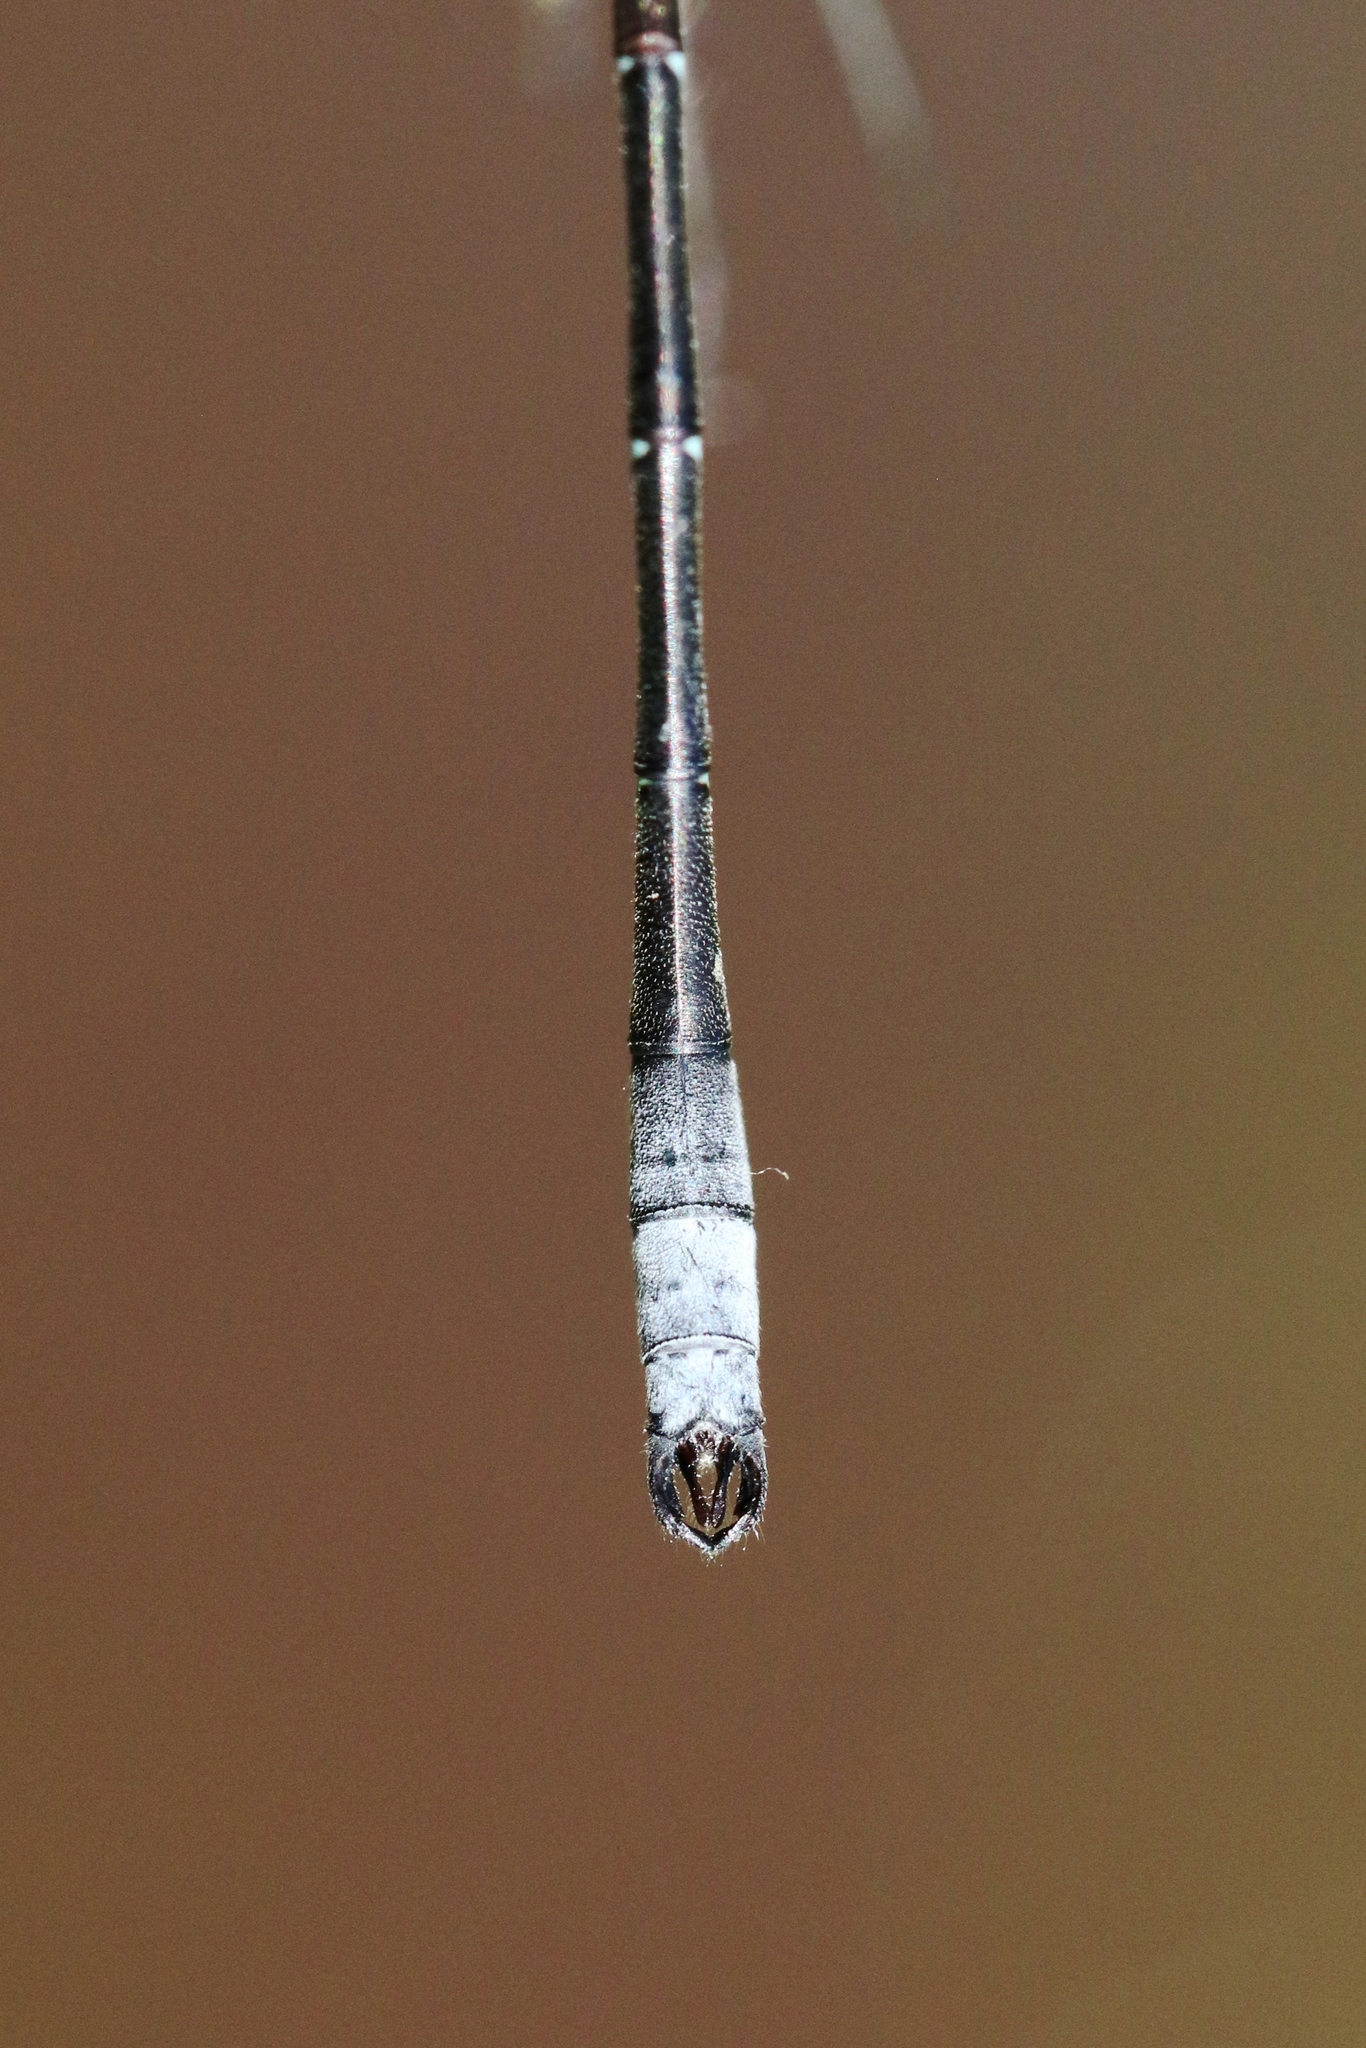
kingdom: Animalia
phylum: Arthropoda
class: Insecta
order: Odonata
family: Lestidae
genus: Lestes
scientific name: Lestes forcipatus
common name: Sweetflag spreadwing
